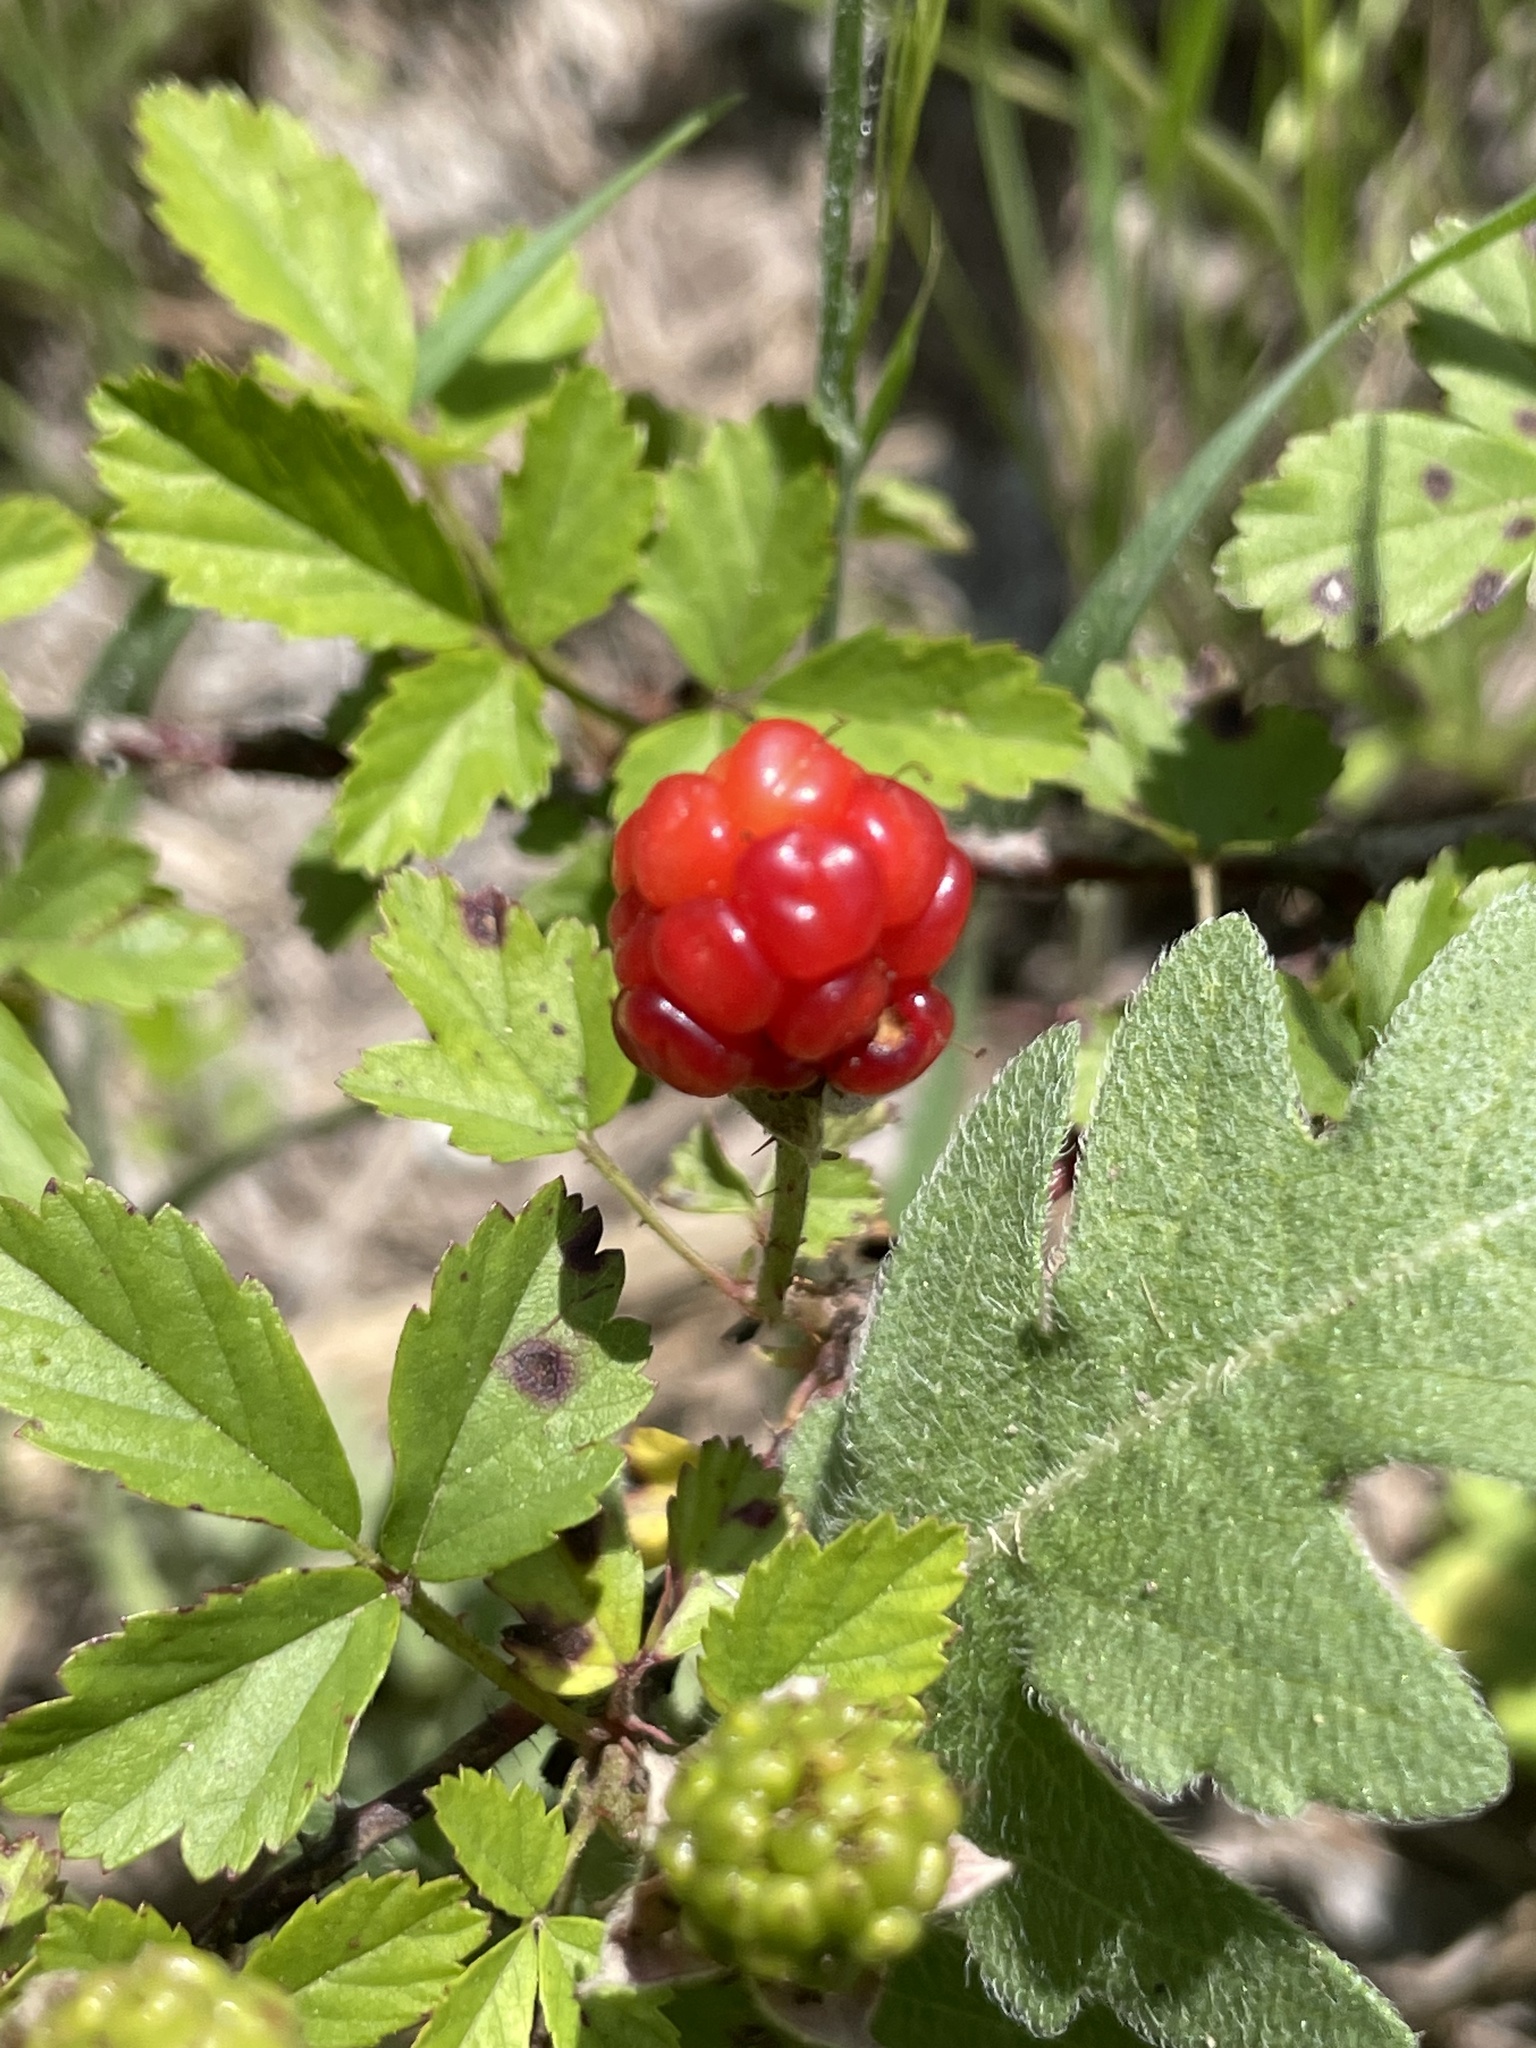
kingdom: Plantae
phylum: Tracheophyta
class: Magnoliopsida
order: Rosales
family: Rosaceae
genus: Rubus
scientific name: Rubus trivialis
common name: Southern dewberry
